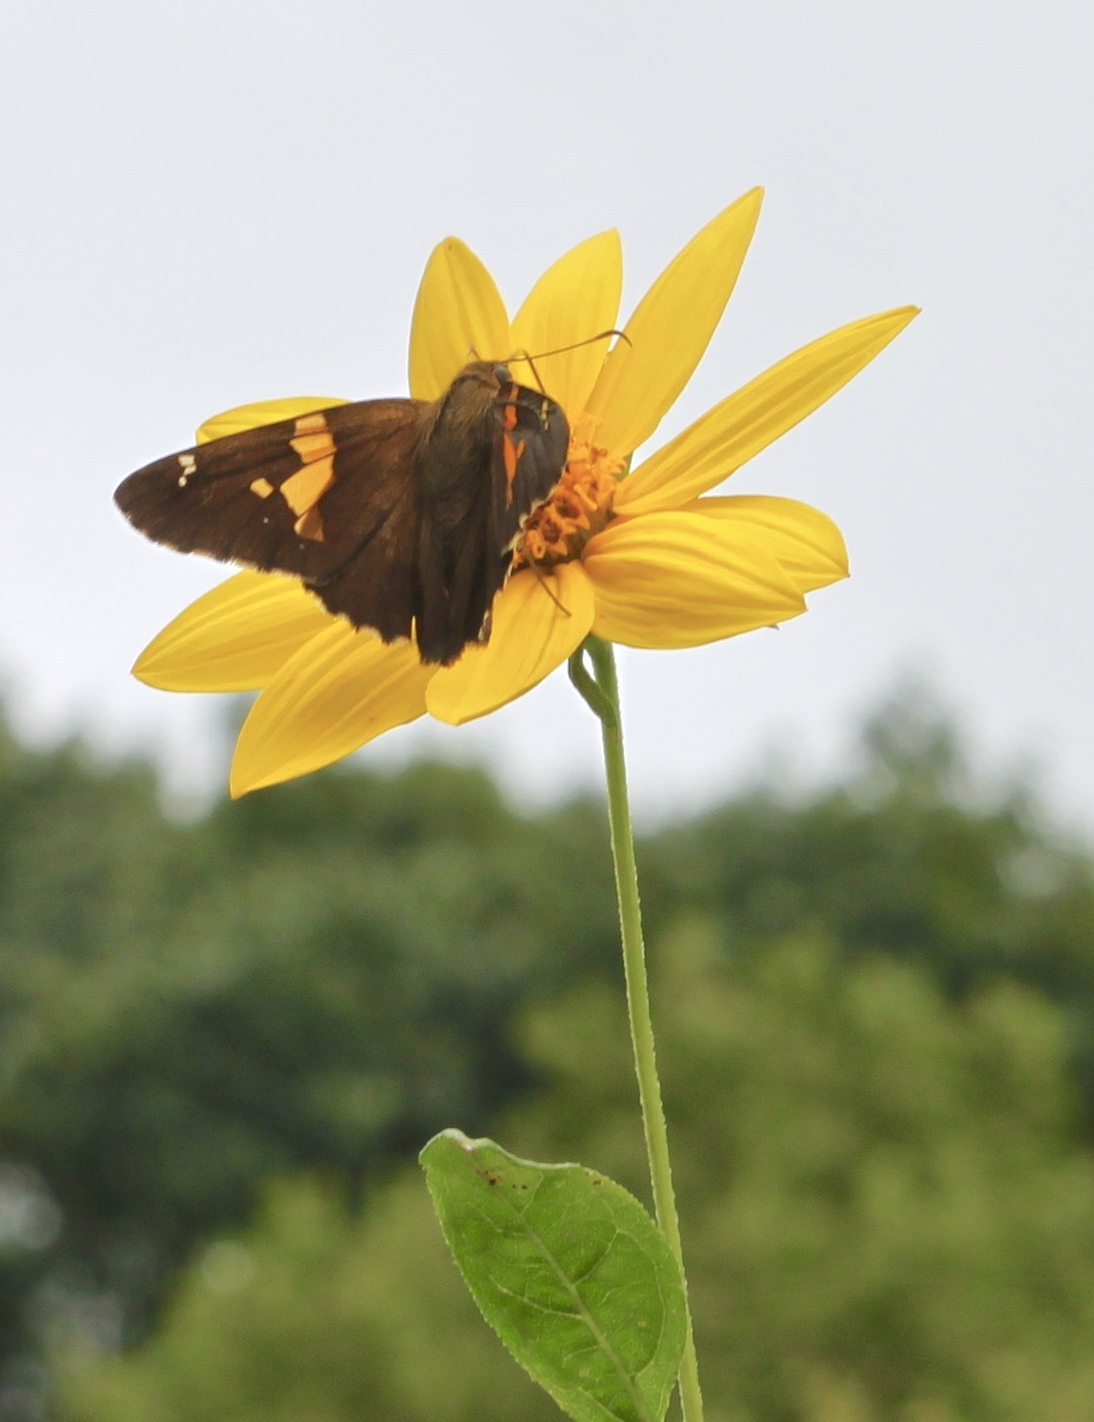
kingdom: Animalia
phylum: Arthropoda
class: Insecta
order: Lepidoptera
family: Hesperiidae
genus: Epargyreus
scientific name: Epargyreus clarus
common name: Silver-spotted skipper
